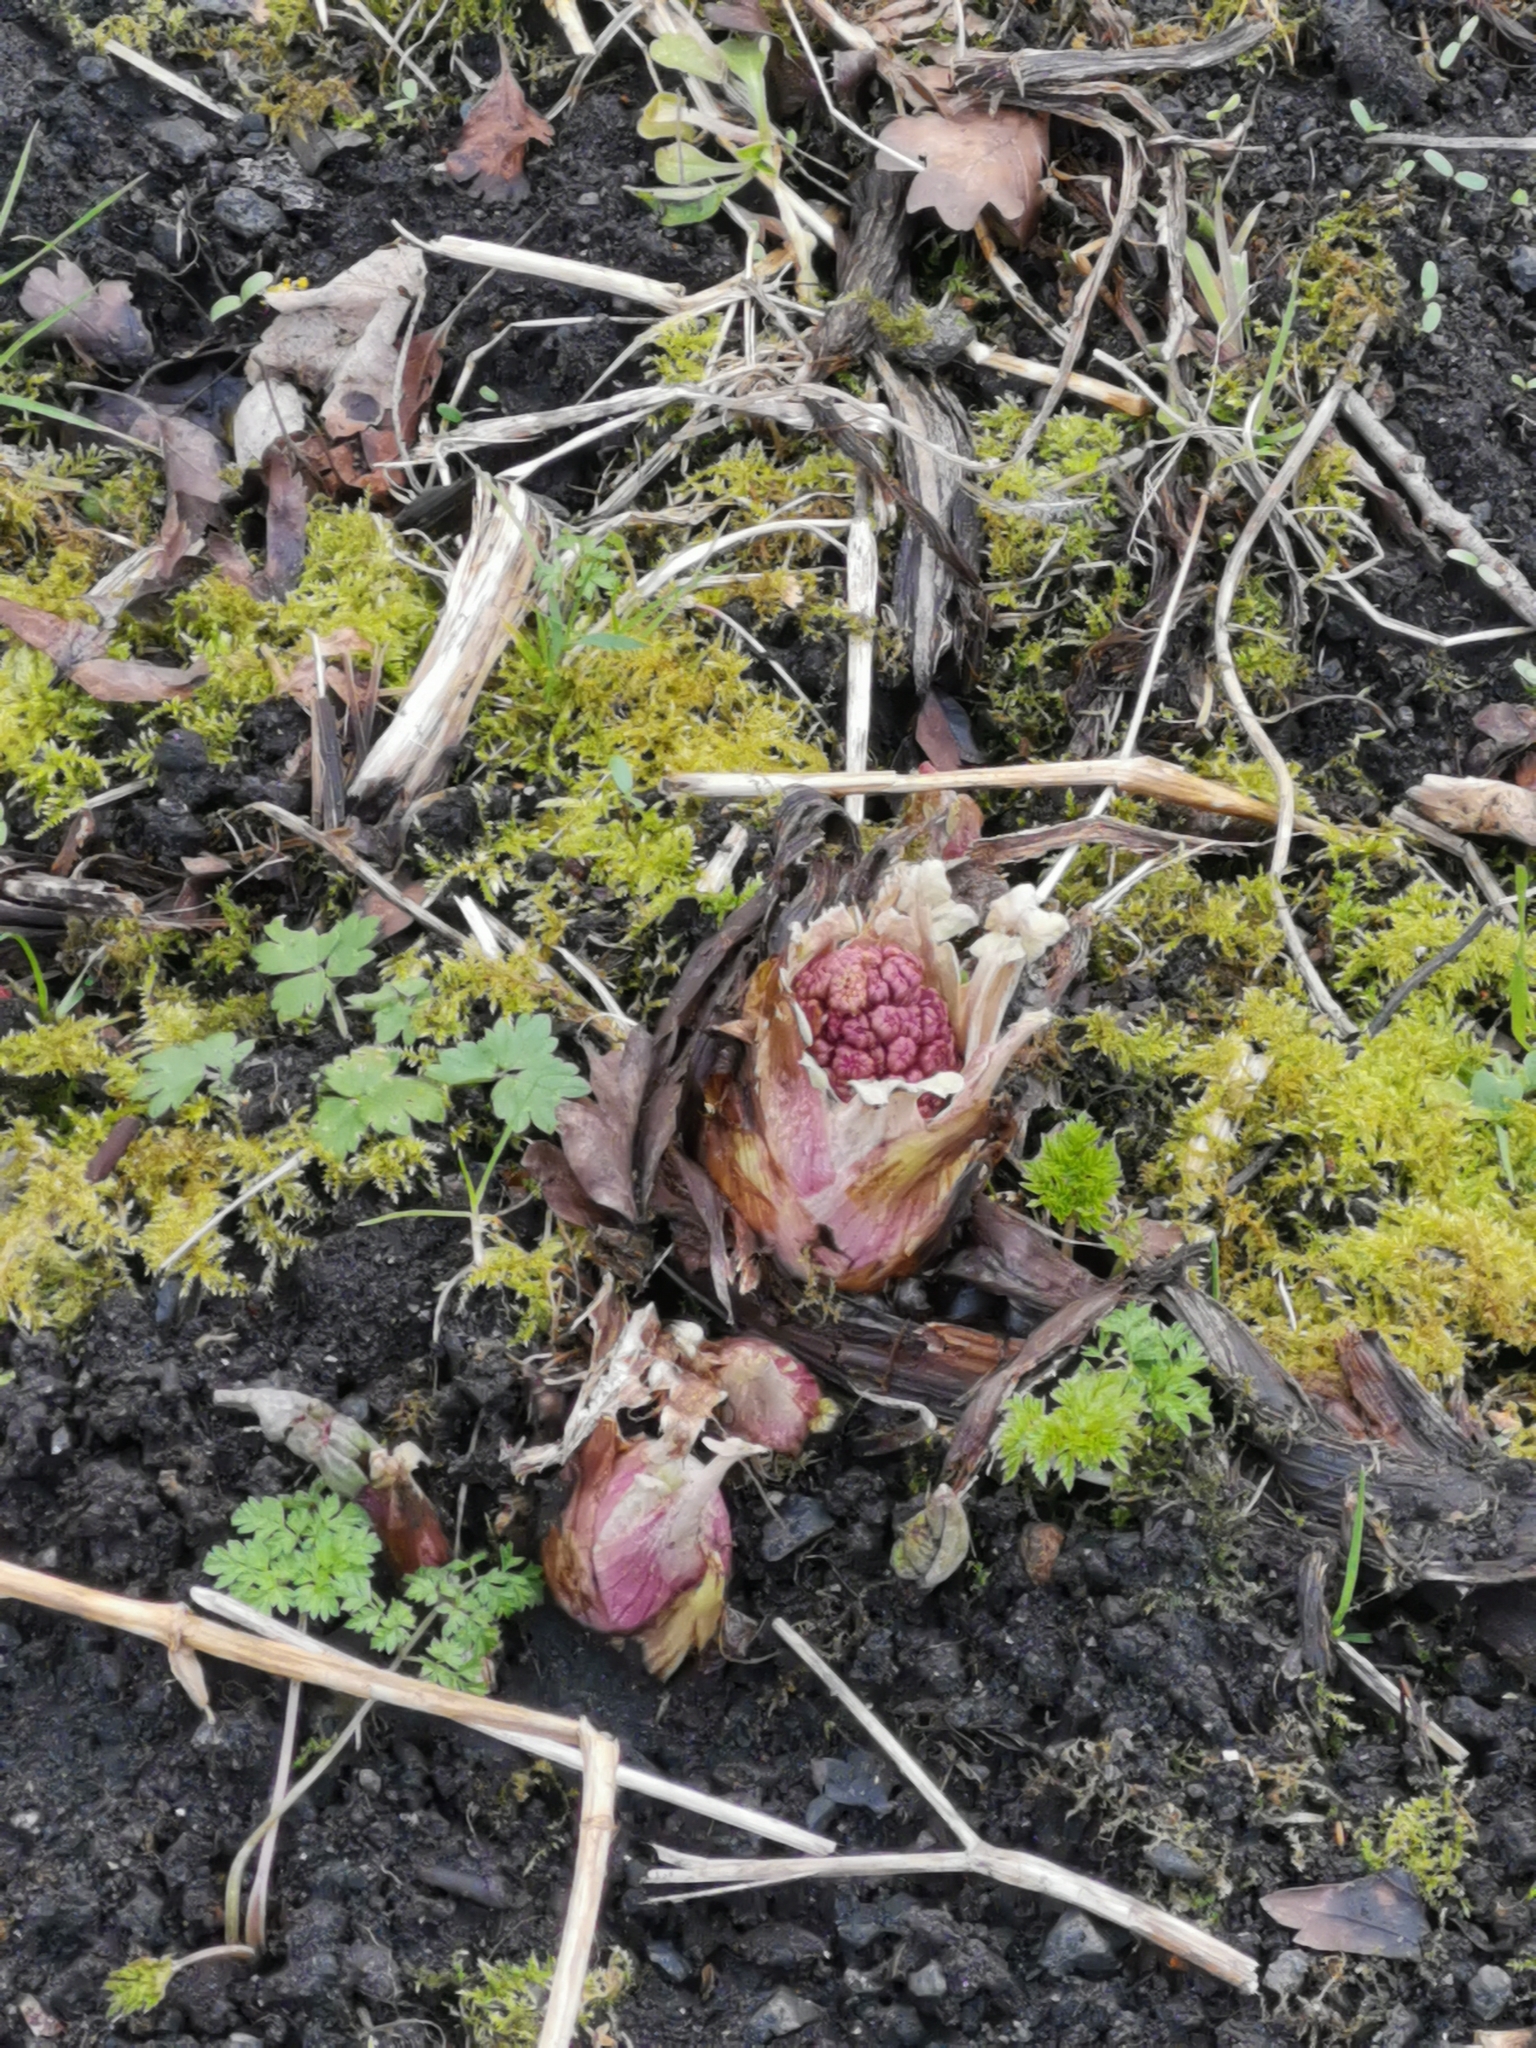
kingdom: Plantae
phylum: Tracheophyta
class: Magnoliopsida
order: Asterales
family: Asteraceae
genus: Petasites
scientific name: Petasites hybridus
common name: Butterbur
